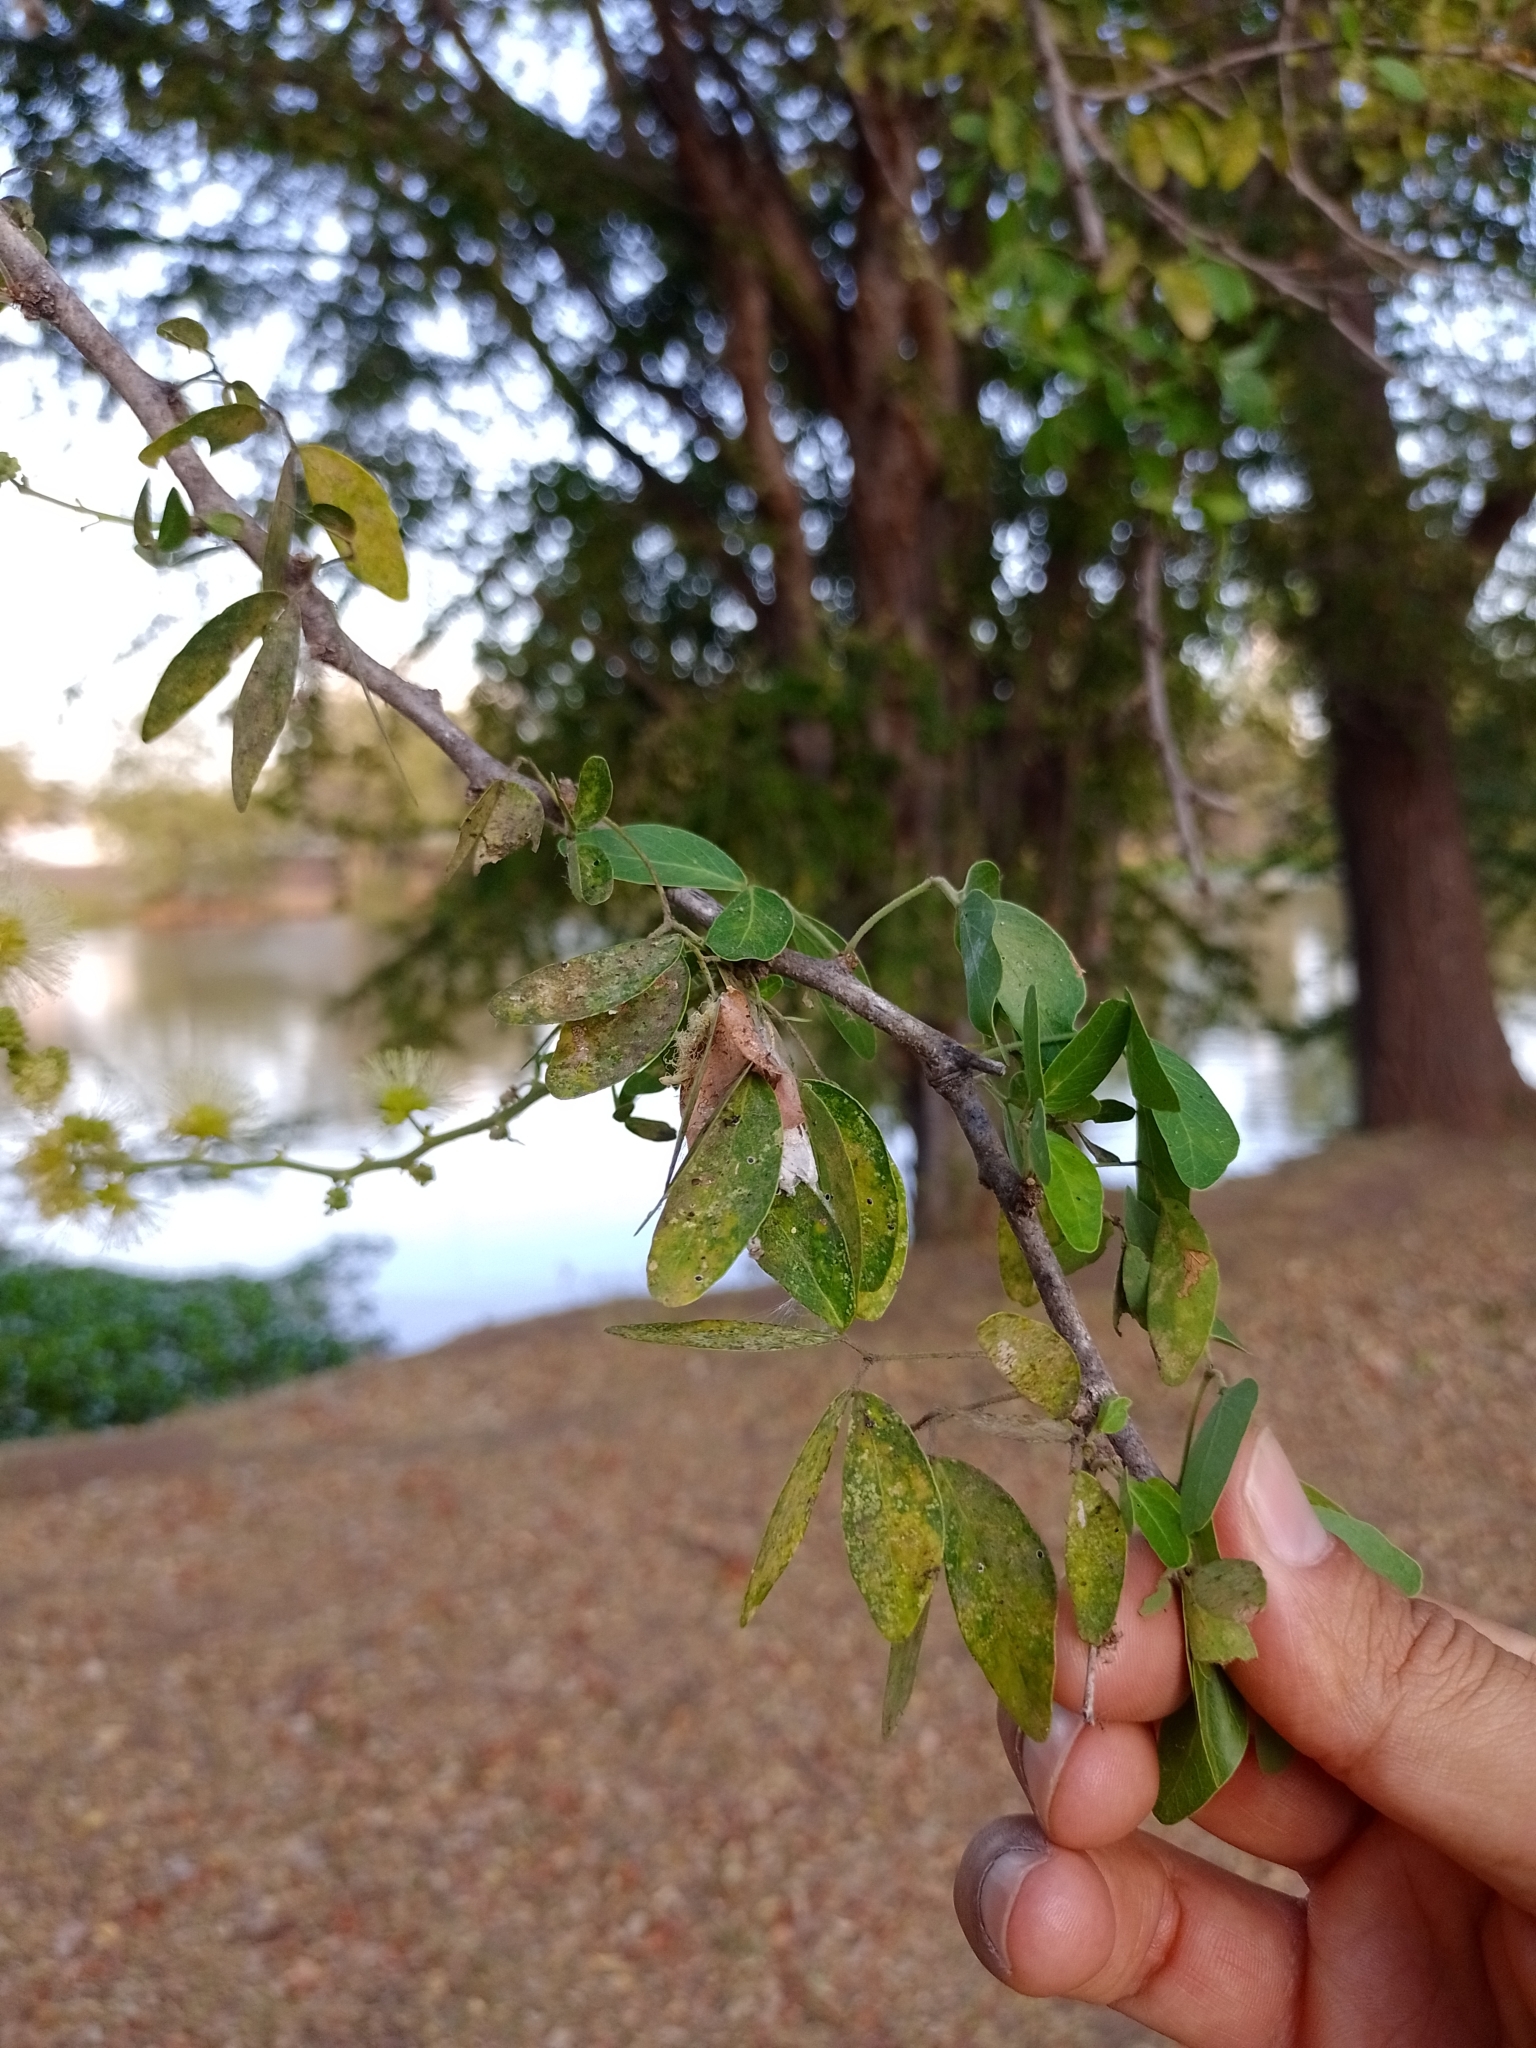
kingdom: Plantae
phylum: Tracheophyta
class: Magnoliopsida
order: Fabales
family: Fabaceae
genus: Pithecellobium
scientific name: Pithecellobium dulce
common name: Monkeypod
